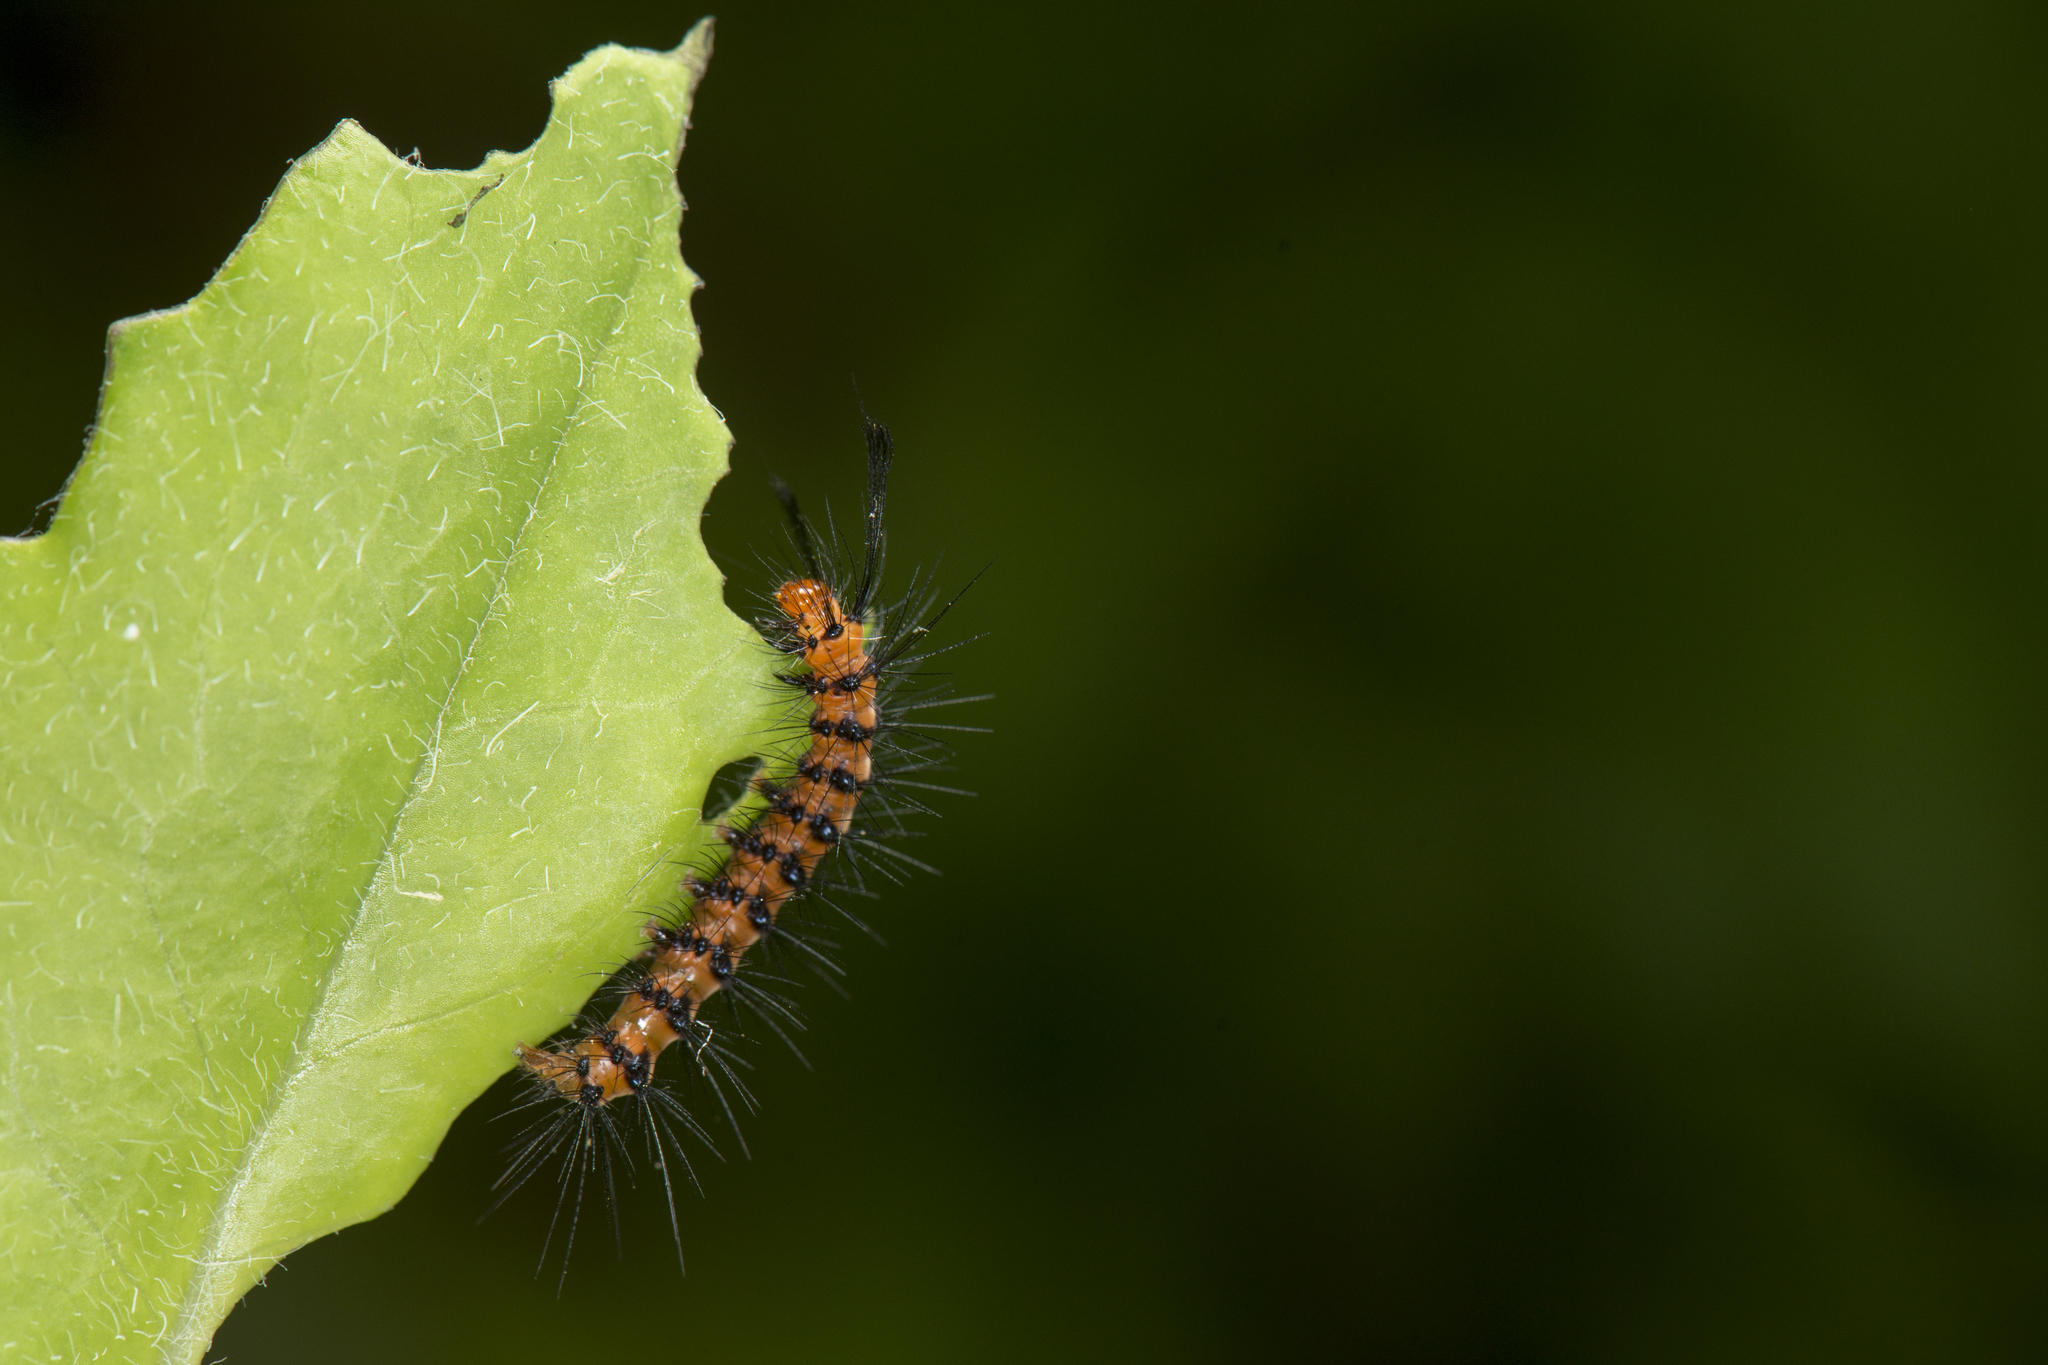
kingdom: Animalia
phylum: Arthropoda
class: Insecta
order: Lepidoptera
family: Erebidae
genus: Nyctemera
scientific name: Nyctemera lacticinia
